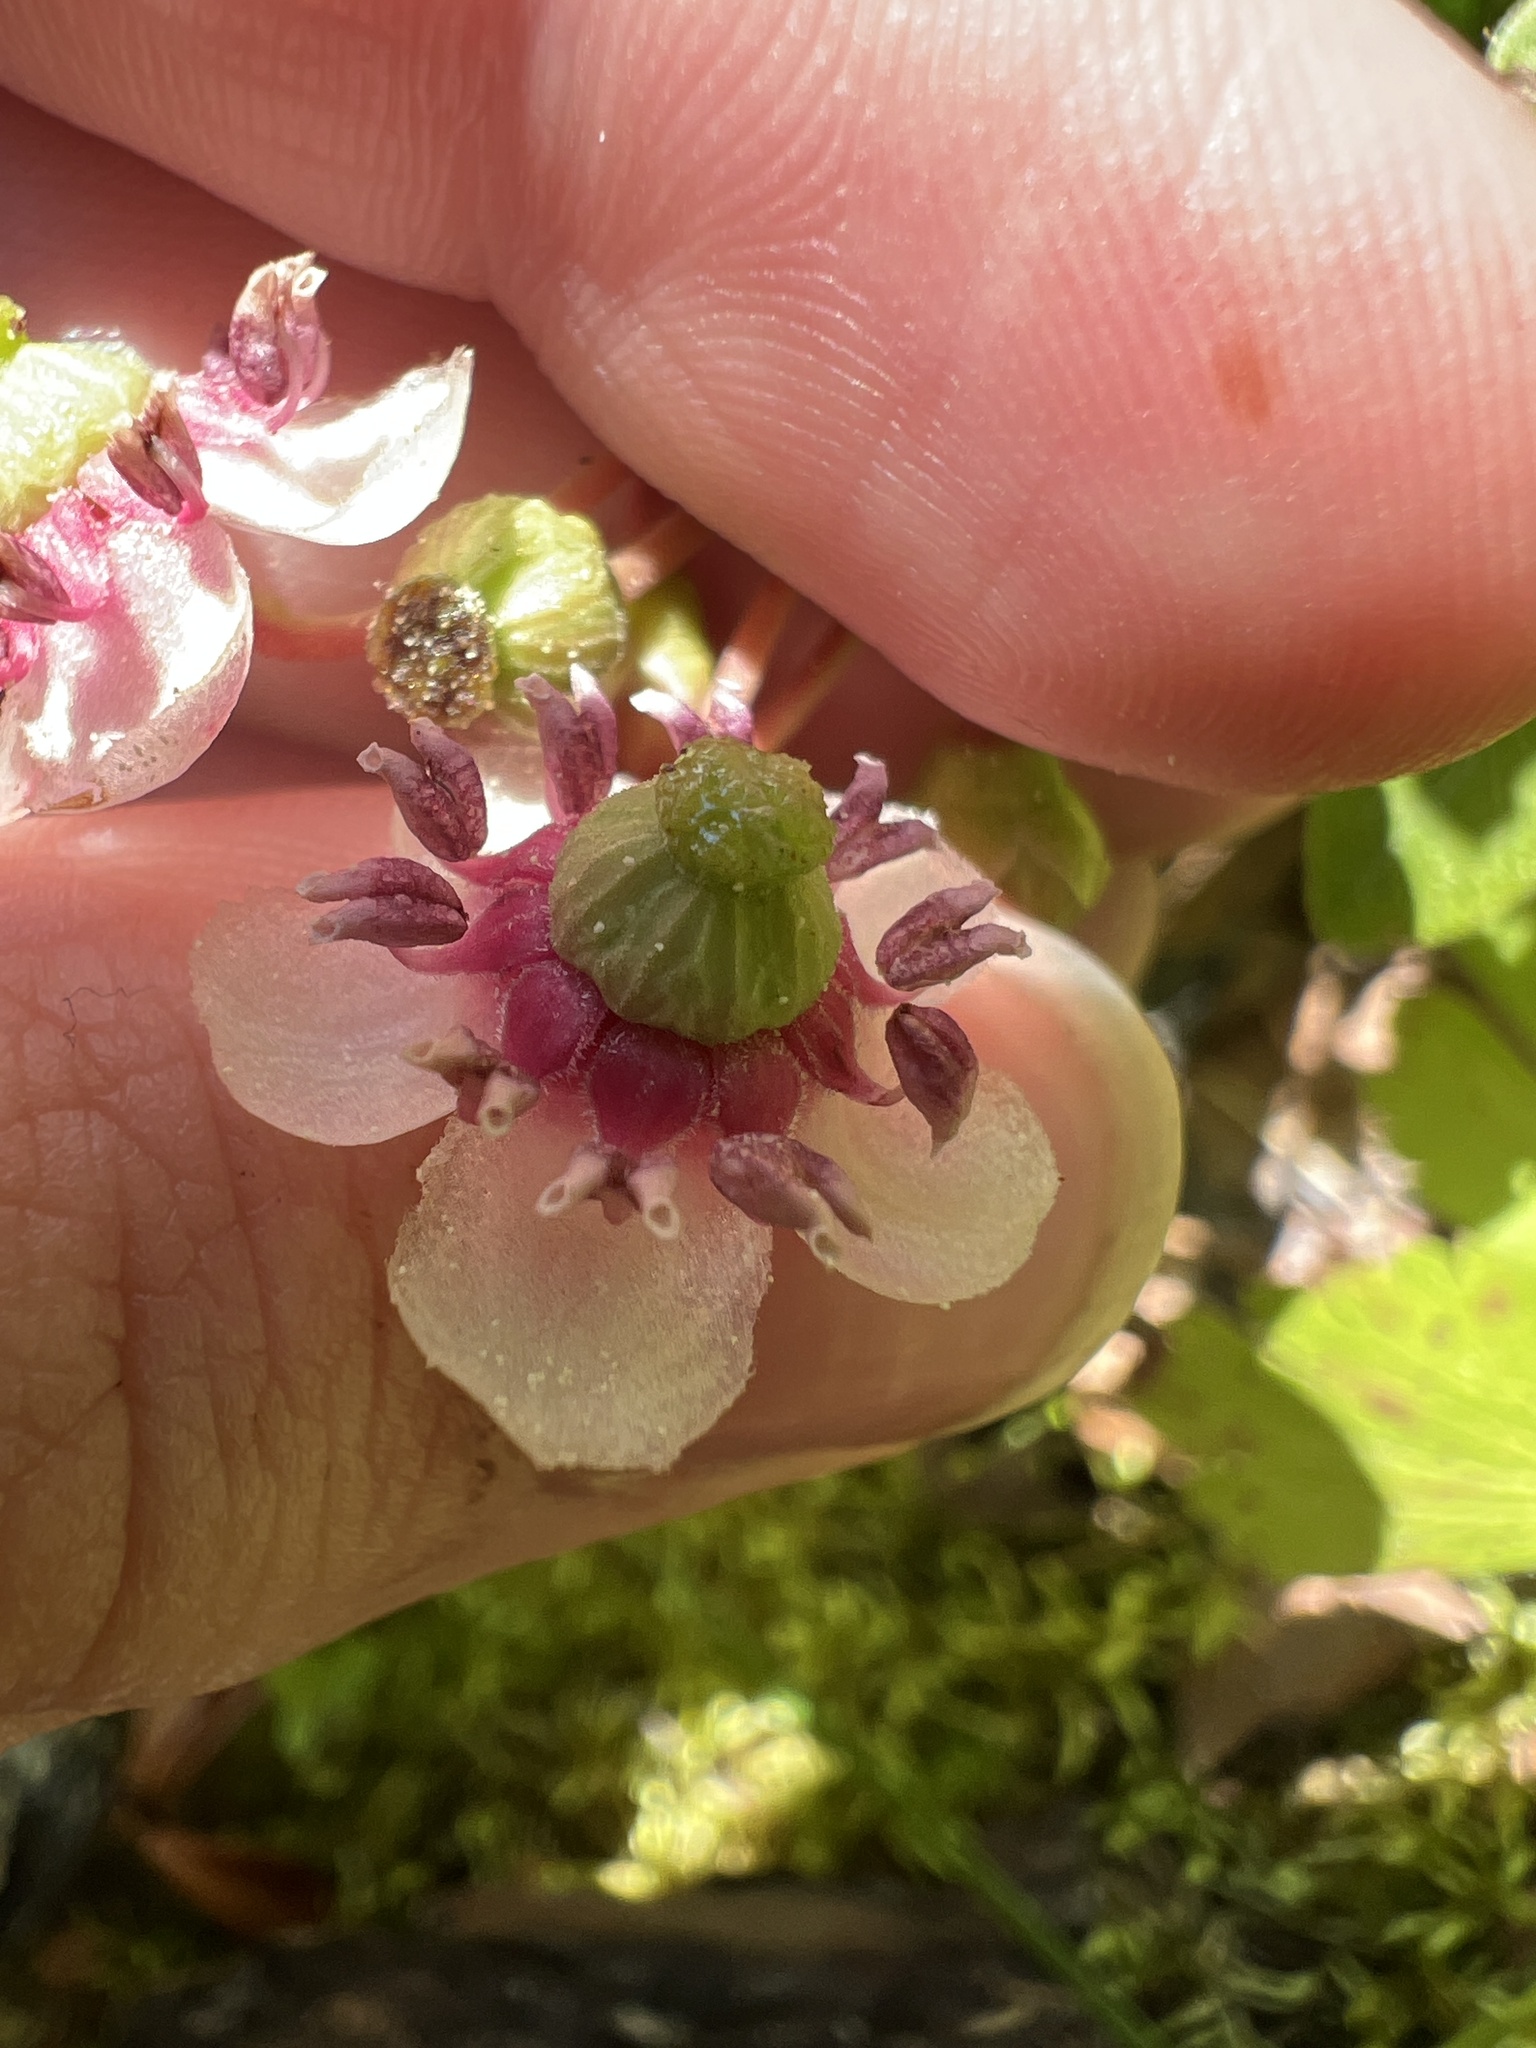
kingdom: Plantae
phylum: Tracheophyta
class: Magnoliopsida
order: Ericales
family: Ericaceae
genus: Chimaphila
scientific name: Chimaphila umbellata
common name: Pipsissewa
